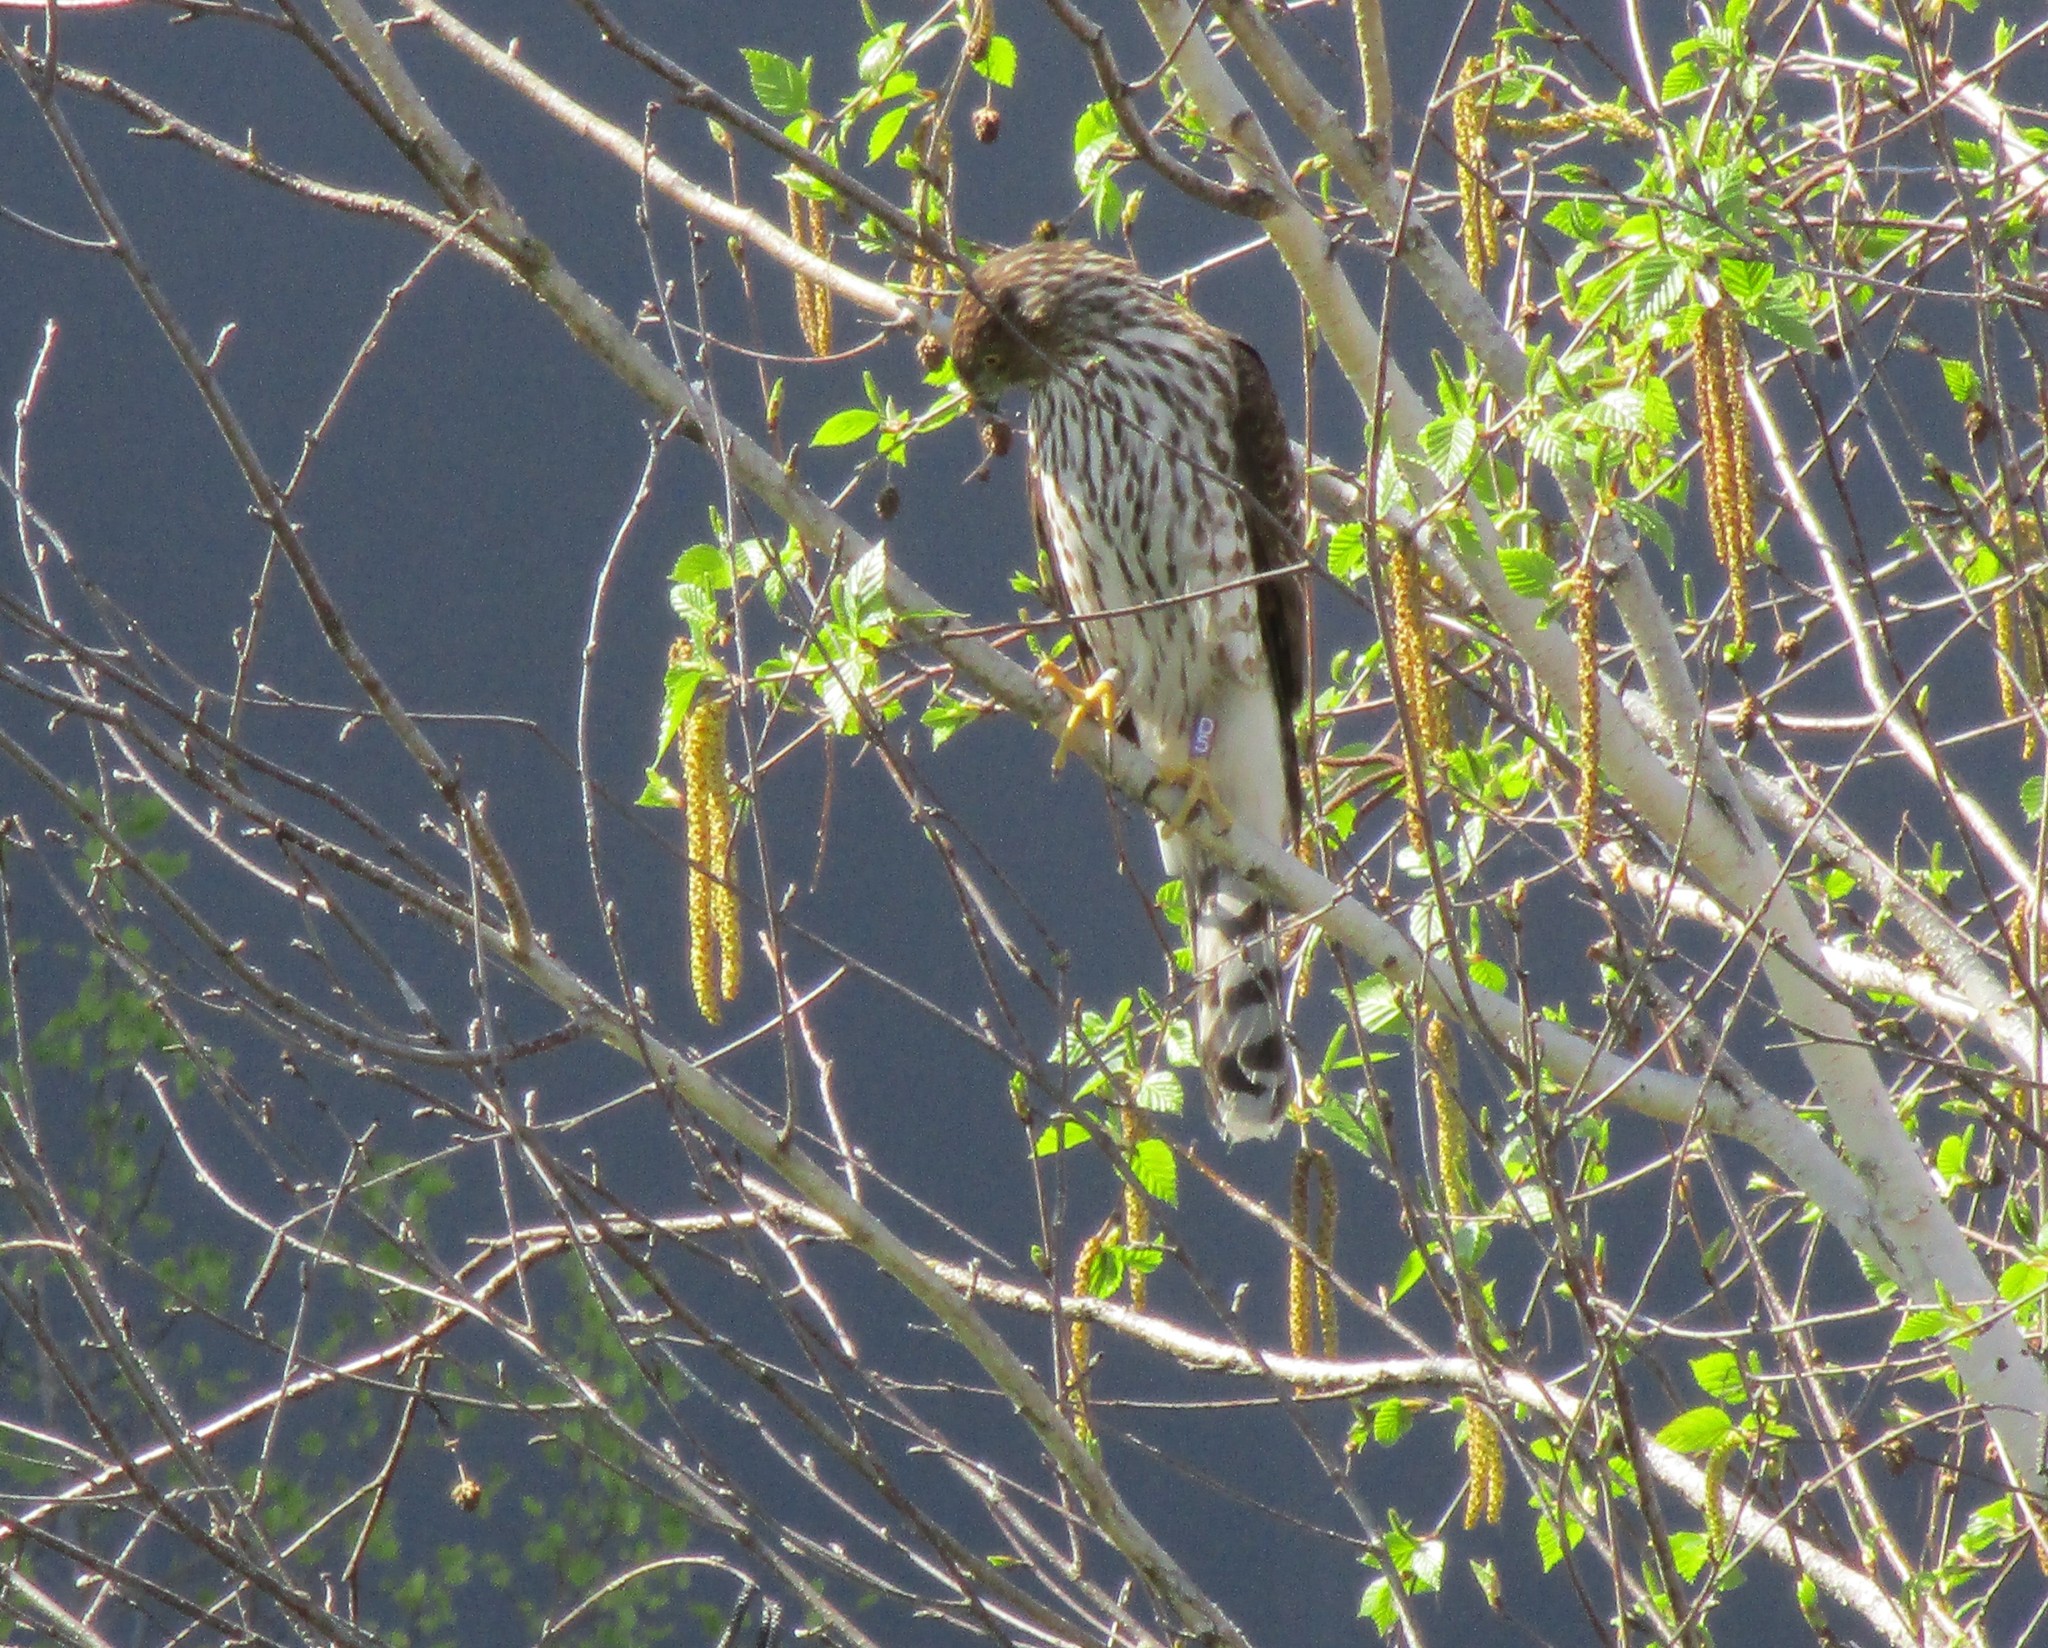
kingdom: Animalia
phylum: Chordata
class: Aves
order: Accipitriformes
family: Accipitridae
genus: Accipiter
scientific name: Accipiter cooperii
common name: Cooper's hawk
